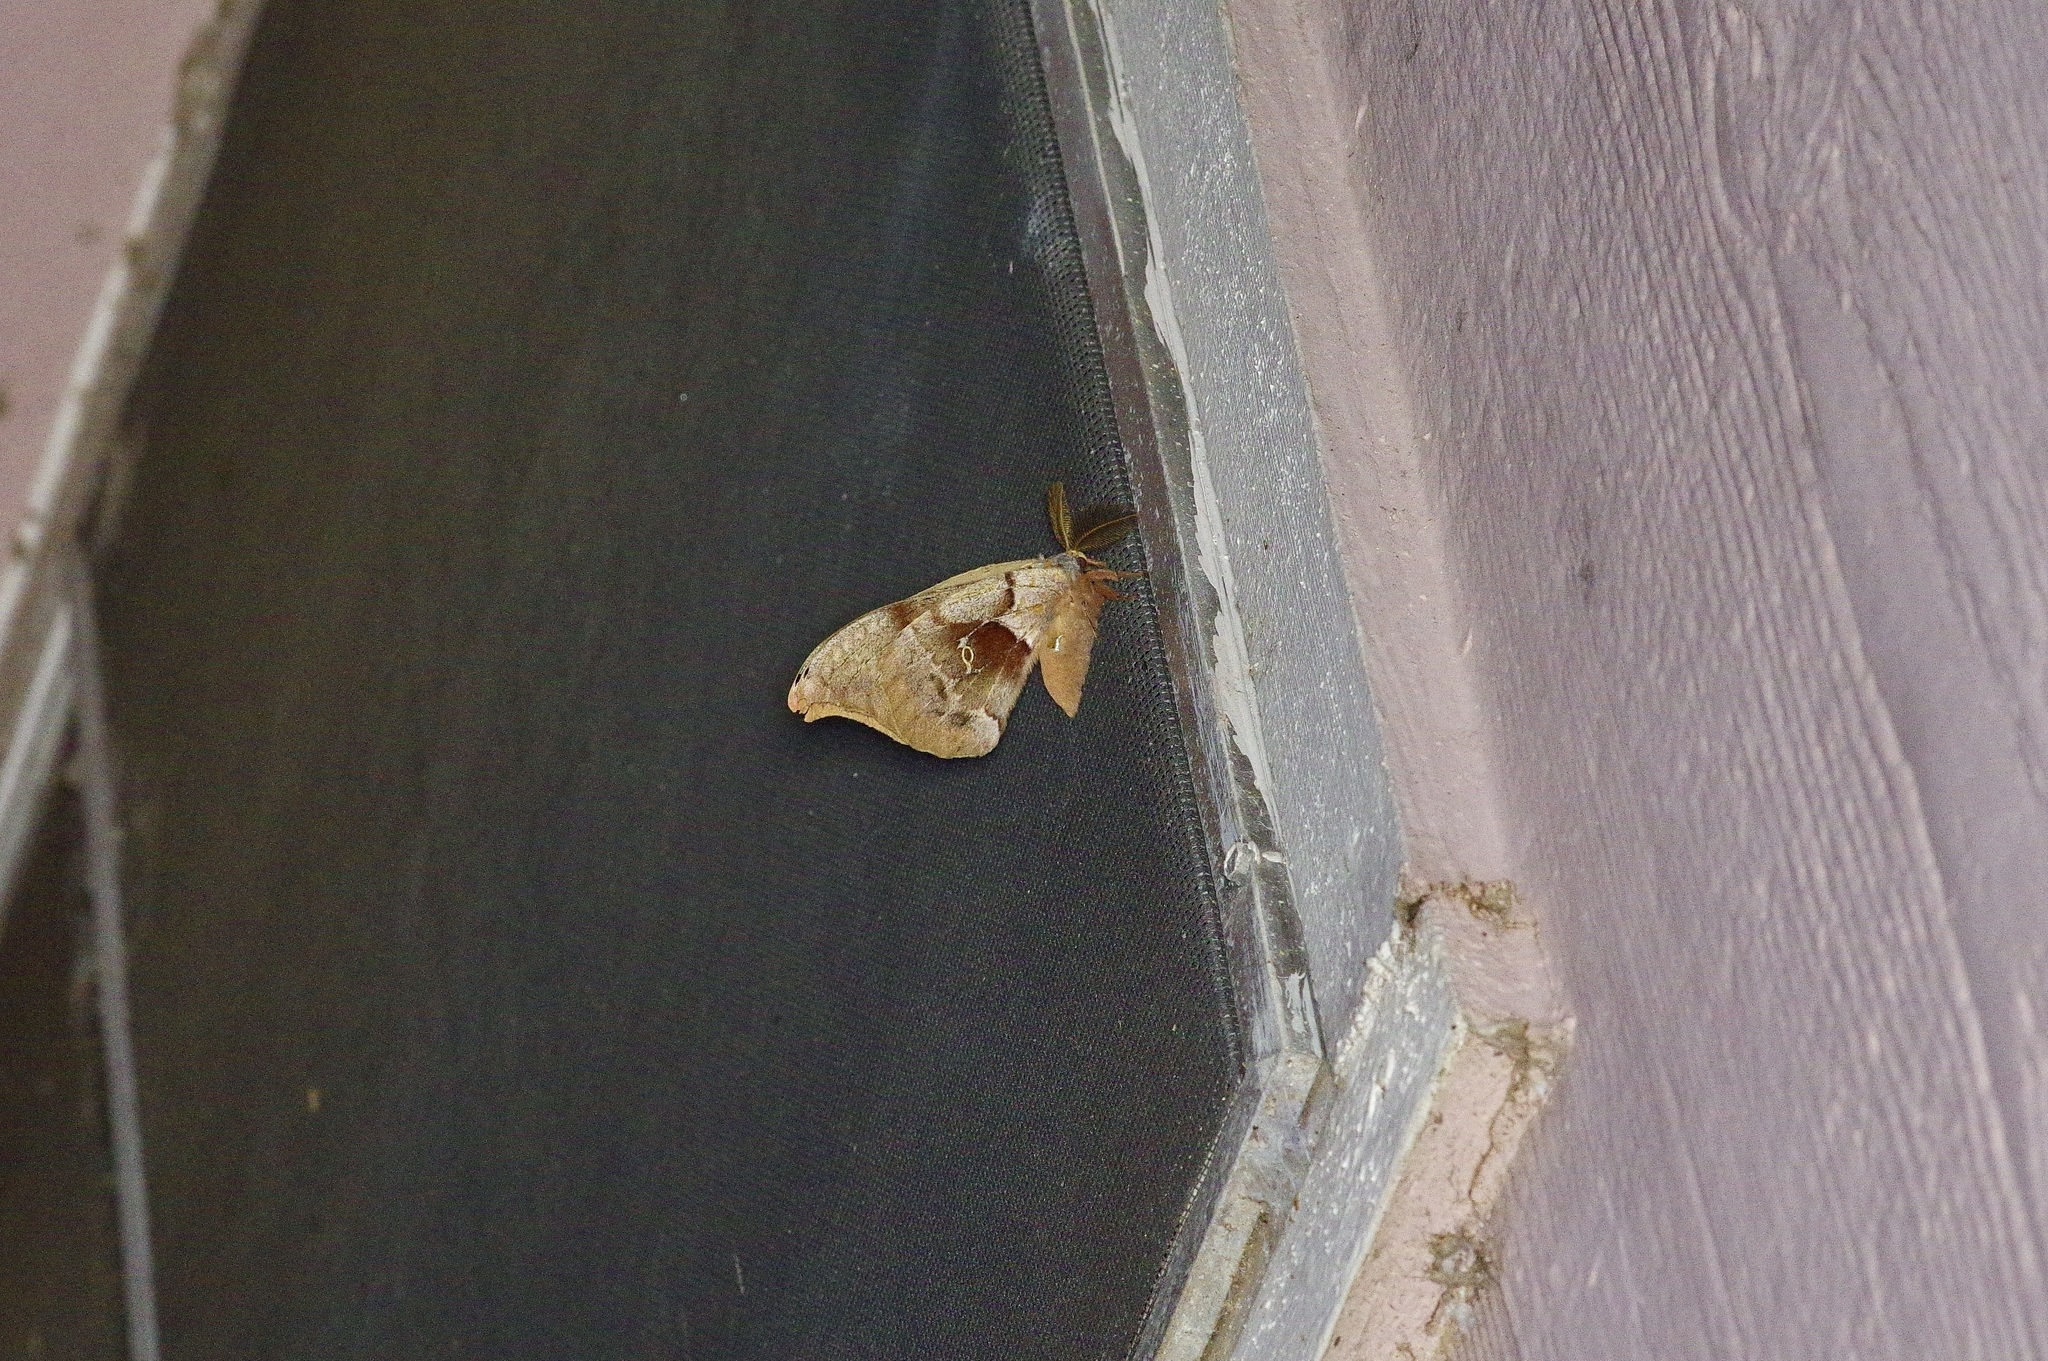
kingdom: Animalia
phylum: Arthropoda
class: Insecta
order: Lepidoptera
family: Saturniidae
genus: Antheraea
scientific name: Antheraea polyphemus
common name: Polyphemus moth
